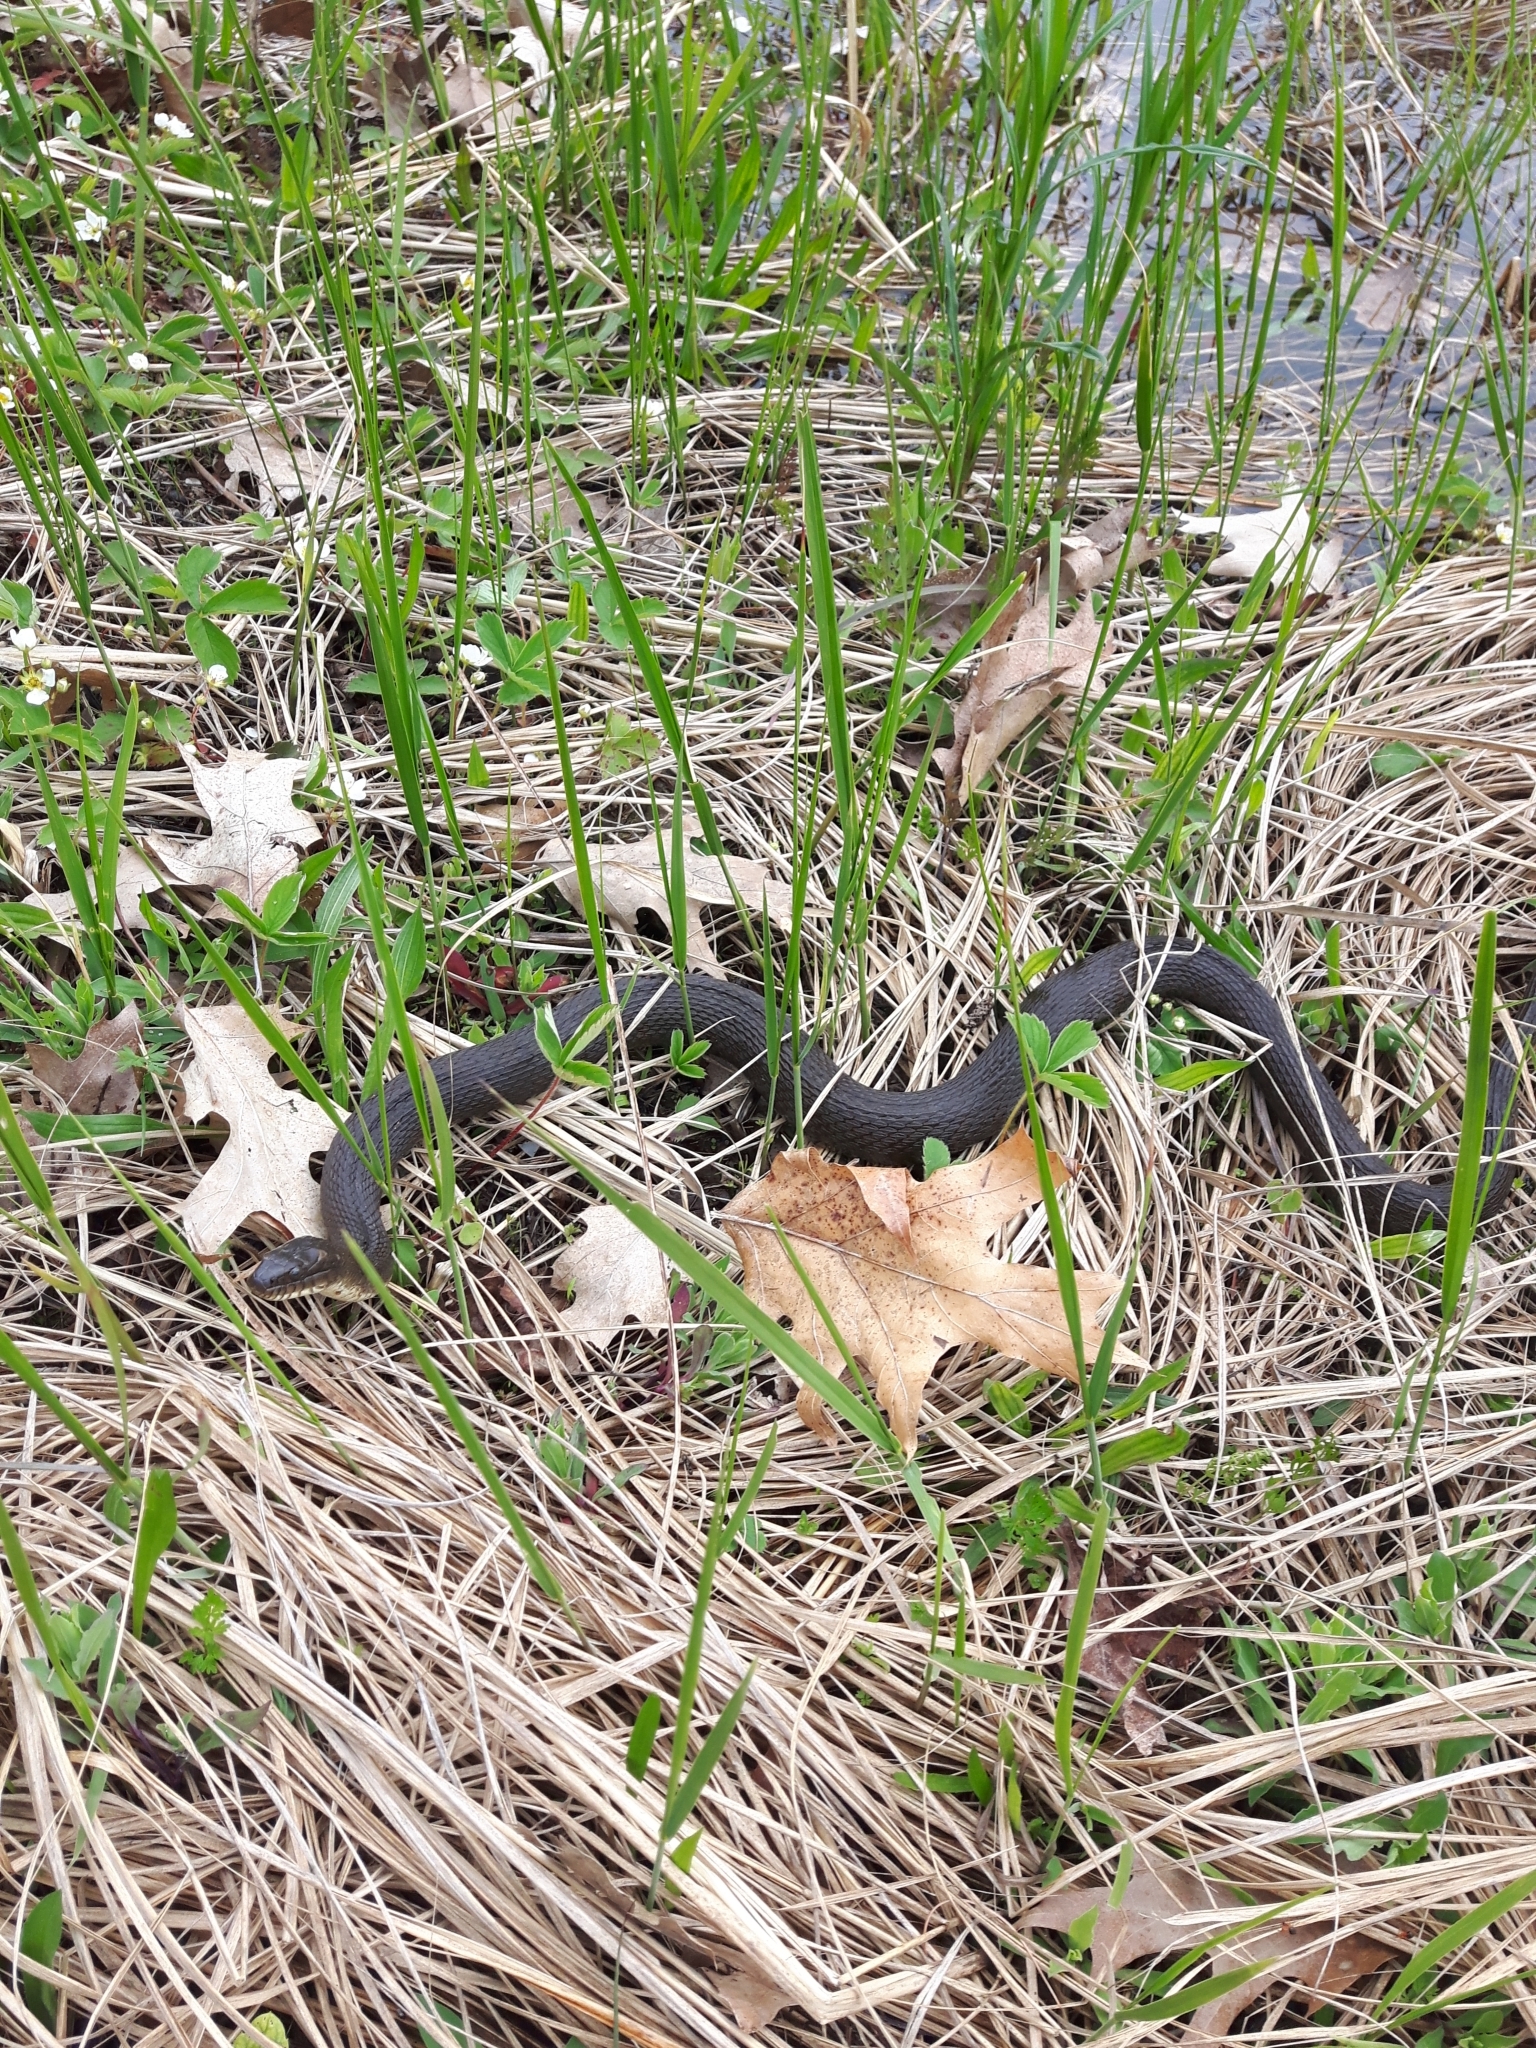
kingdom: Animalia
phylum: Chordata
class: Squamata
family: Colubridae
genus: Nerodia
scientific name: Nerodia sipedon
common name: Northern water snake
